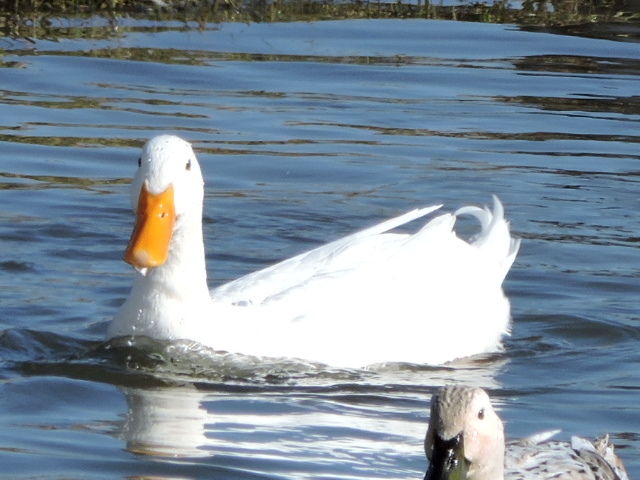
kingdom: Animalia
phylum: Chordata
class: Aves
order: Anseriformes
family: Anatidae
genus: Anas
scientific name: Anas platyrhynchos
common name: Mallard
